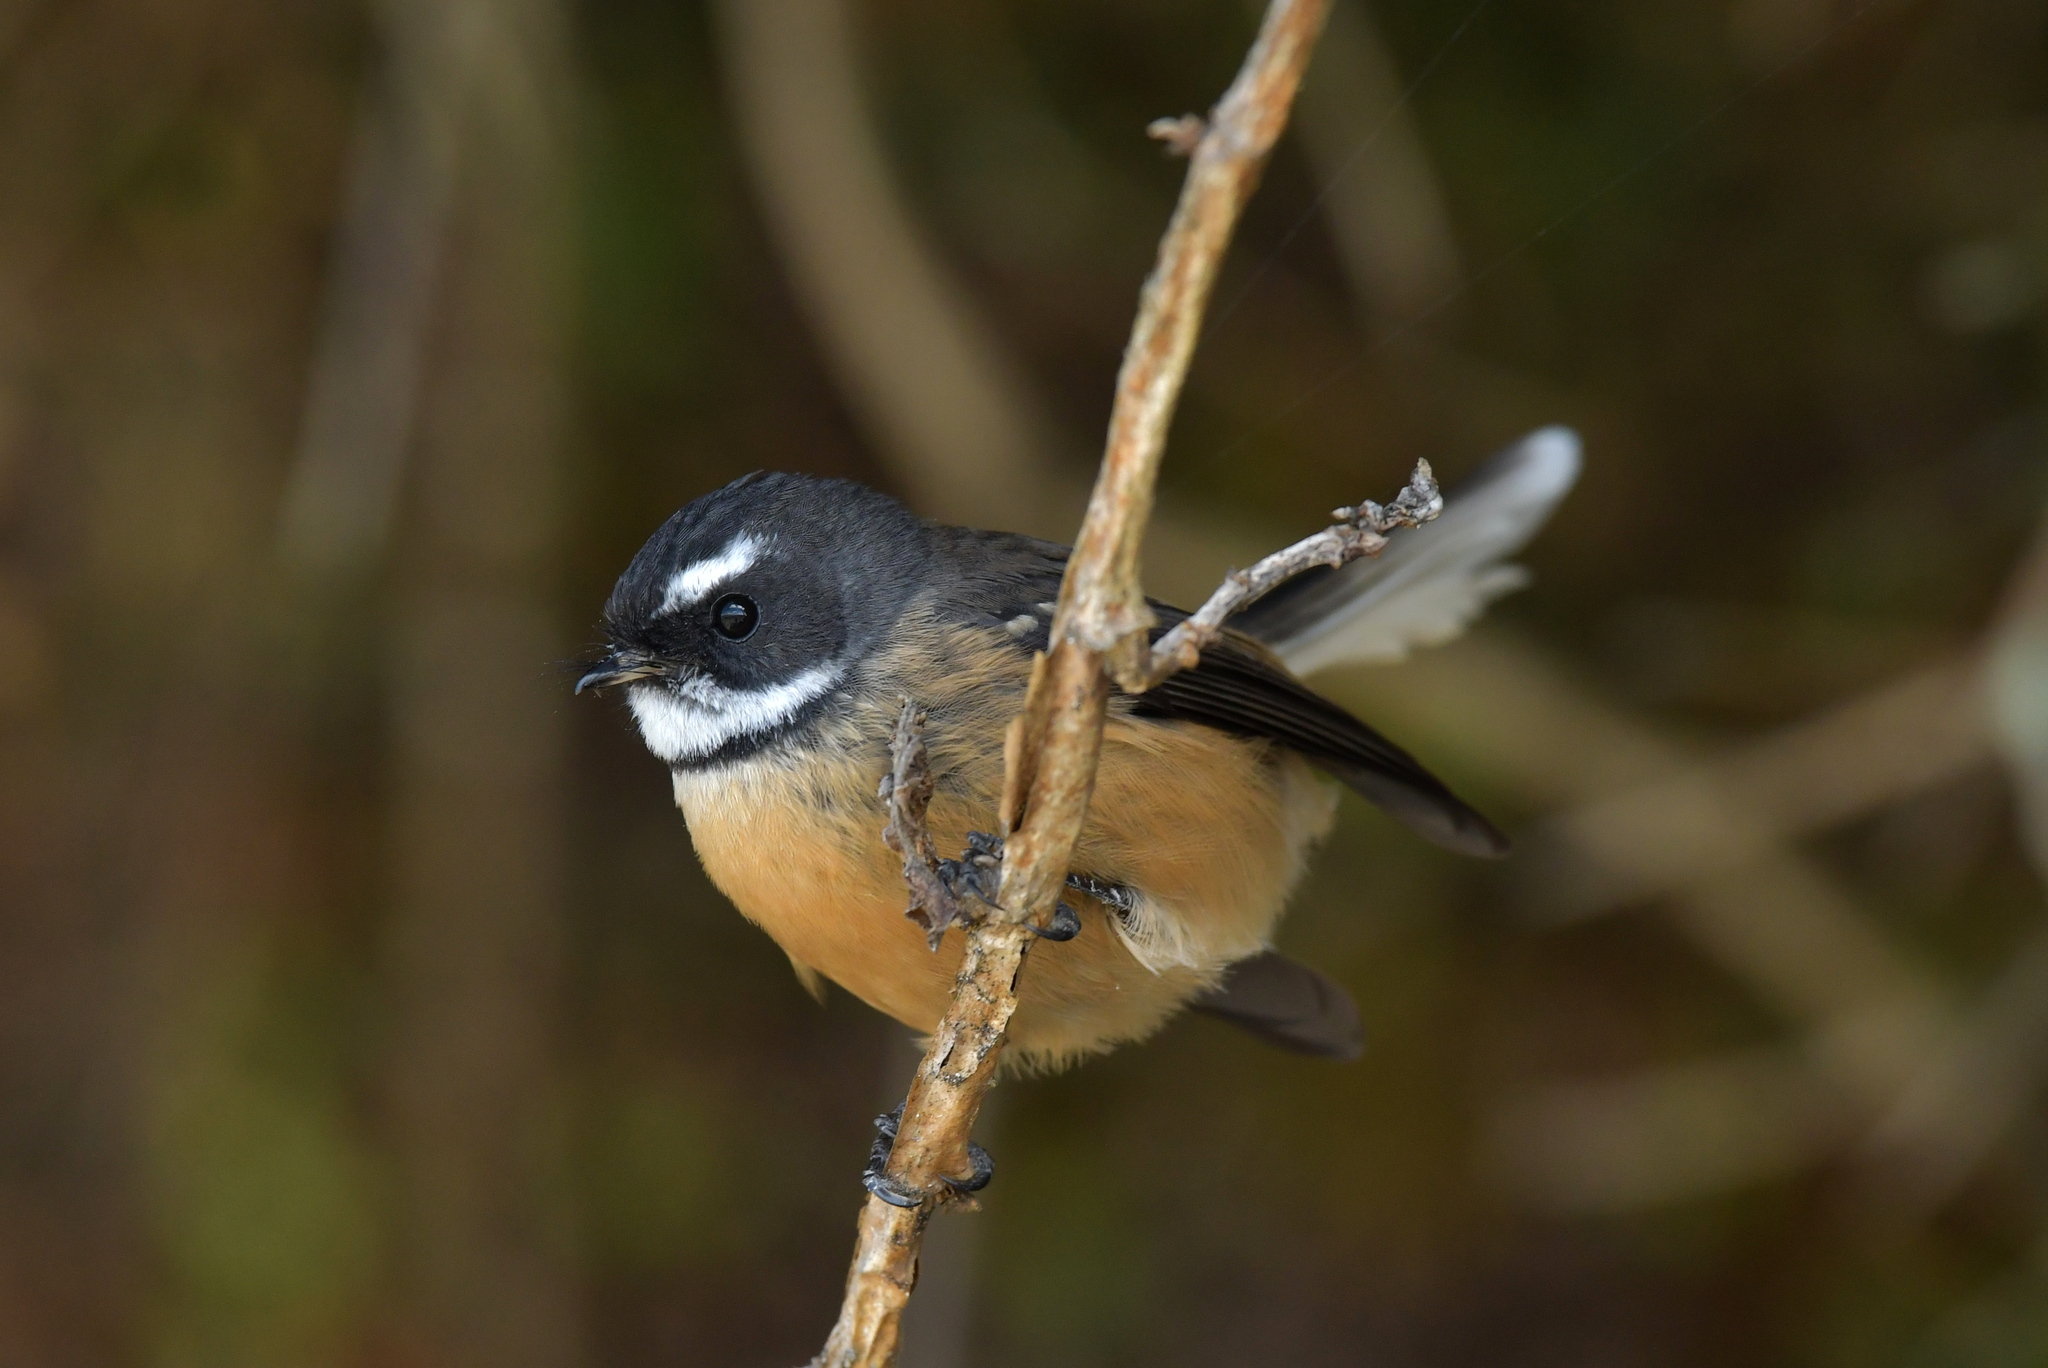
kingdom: Animalia
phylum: Chordata
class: Aves
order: Passeriformes
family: Rhipiduridae
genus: Rhipidura
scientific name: Rhipidura fuliginosa
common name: New zealand fantail
